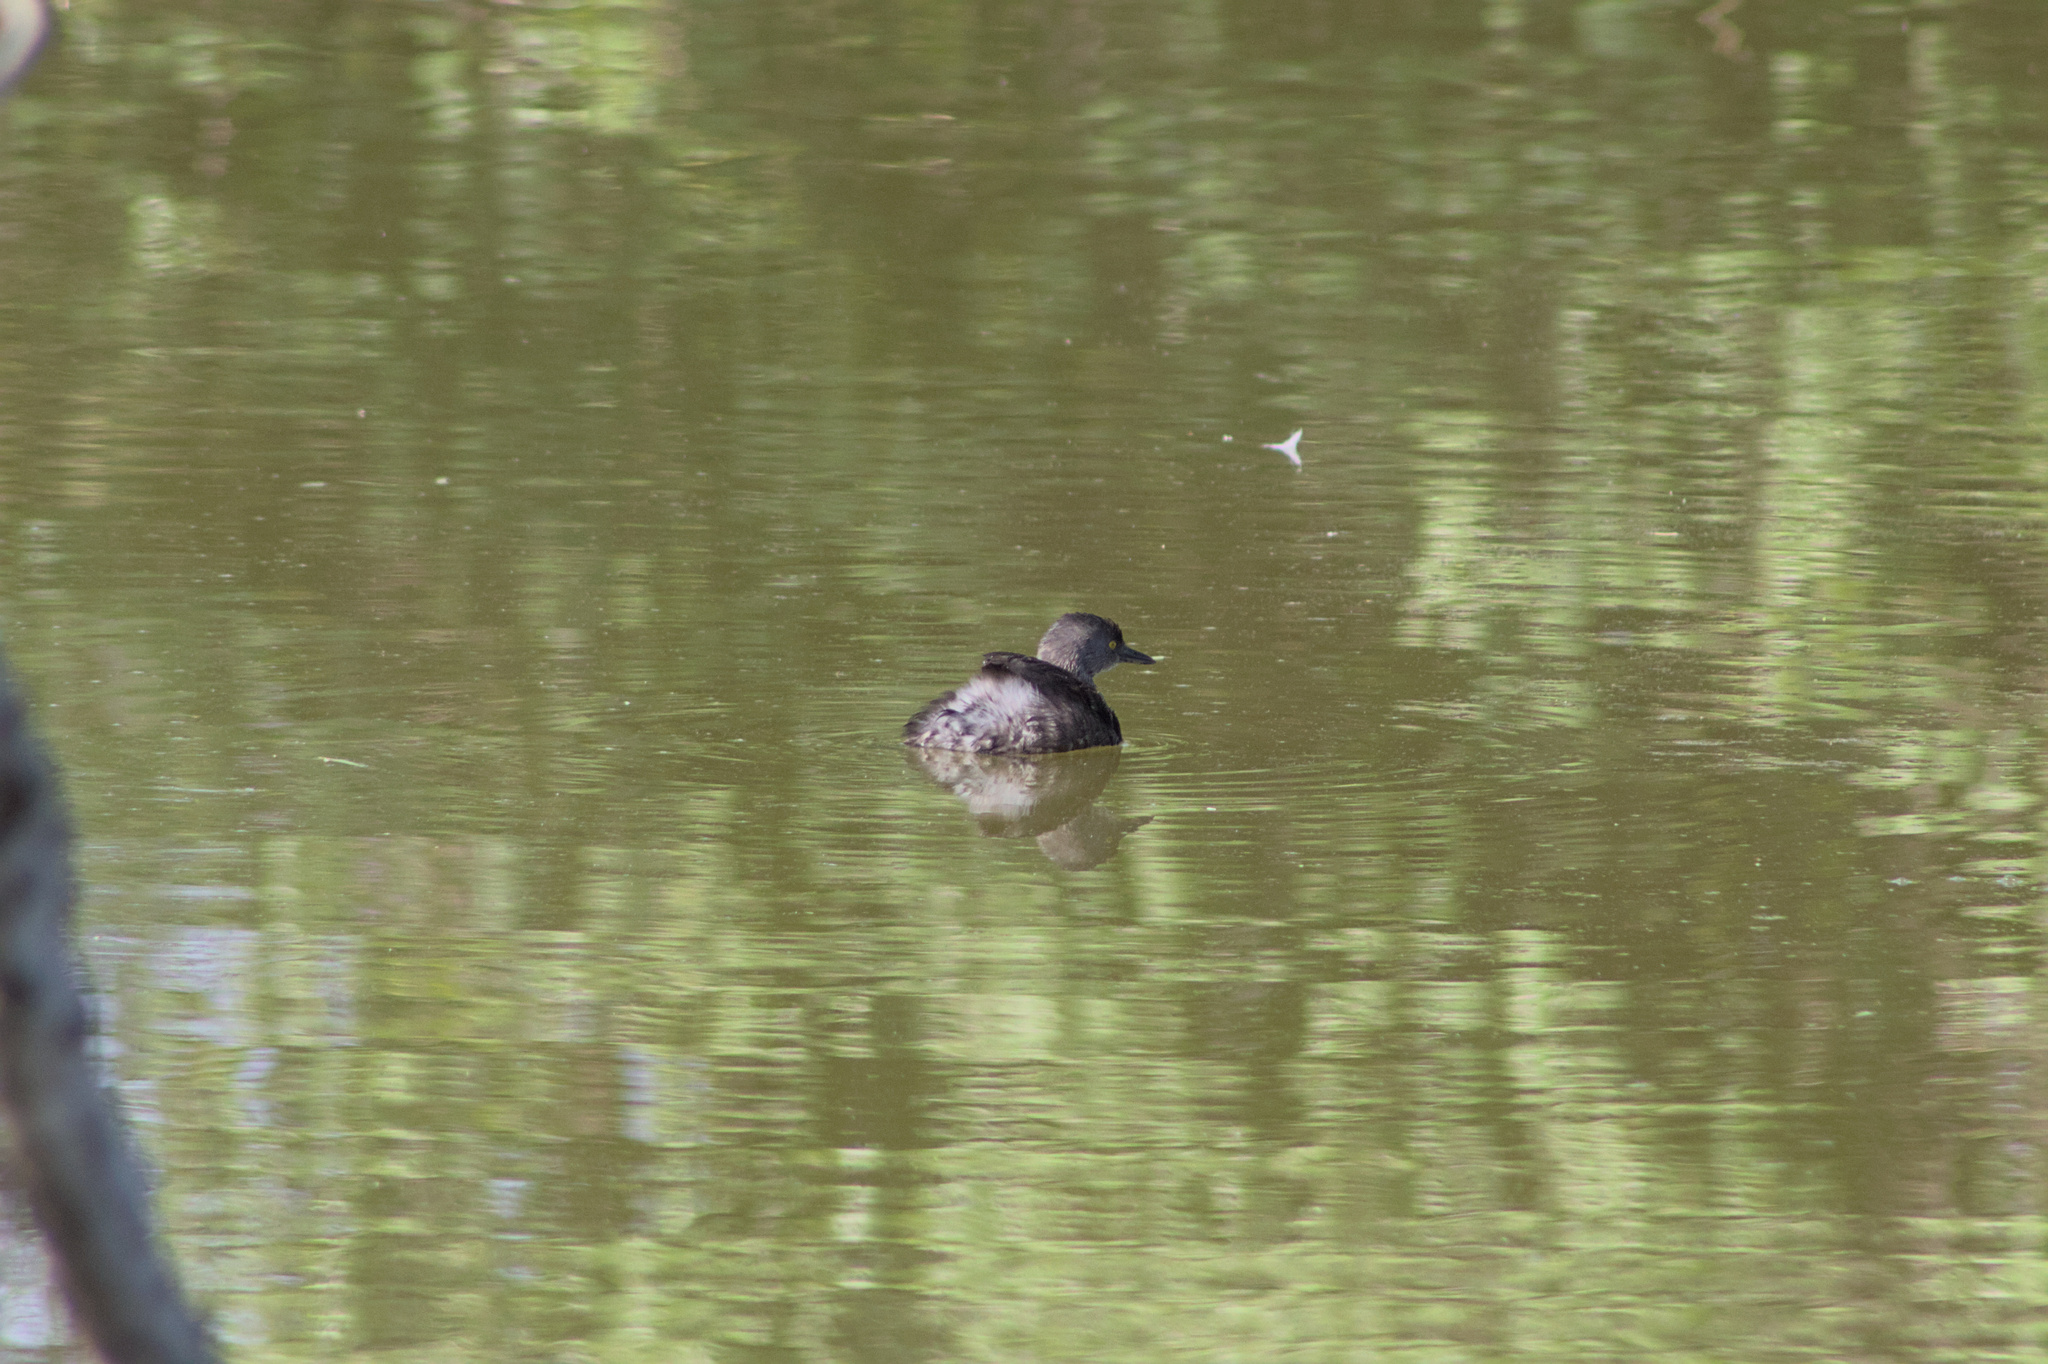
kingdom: Animalia
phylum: Chordata
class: Aves
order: Podicipediformes
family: Podicipedidae
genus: Tachybaptus
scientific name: Tachybaptus dominicus
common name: Least grebe
